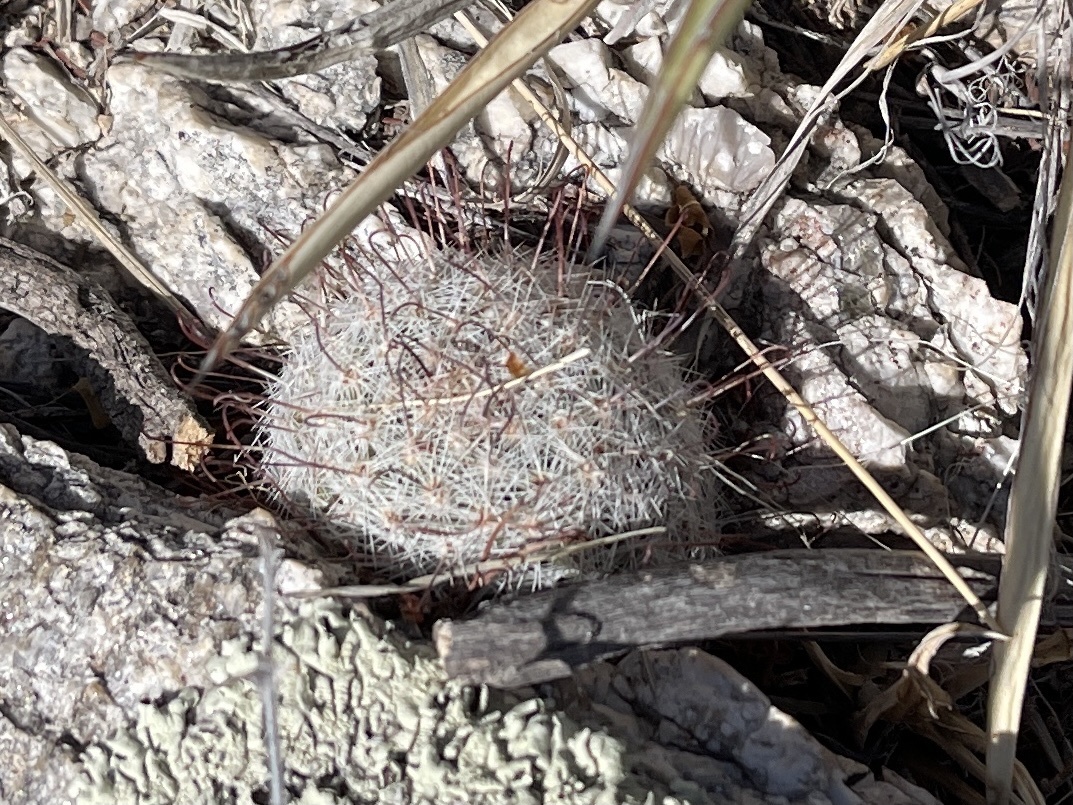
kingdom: Plantae
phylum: Tracheophyta
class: Magnoliopsida
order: Caryophyllales
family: Cactaceae
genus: Cochemiea
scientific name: Cochemiea grahamii
